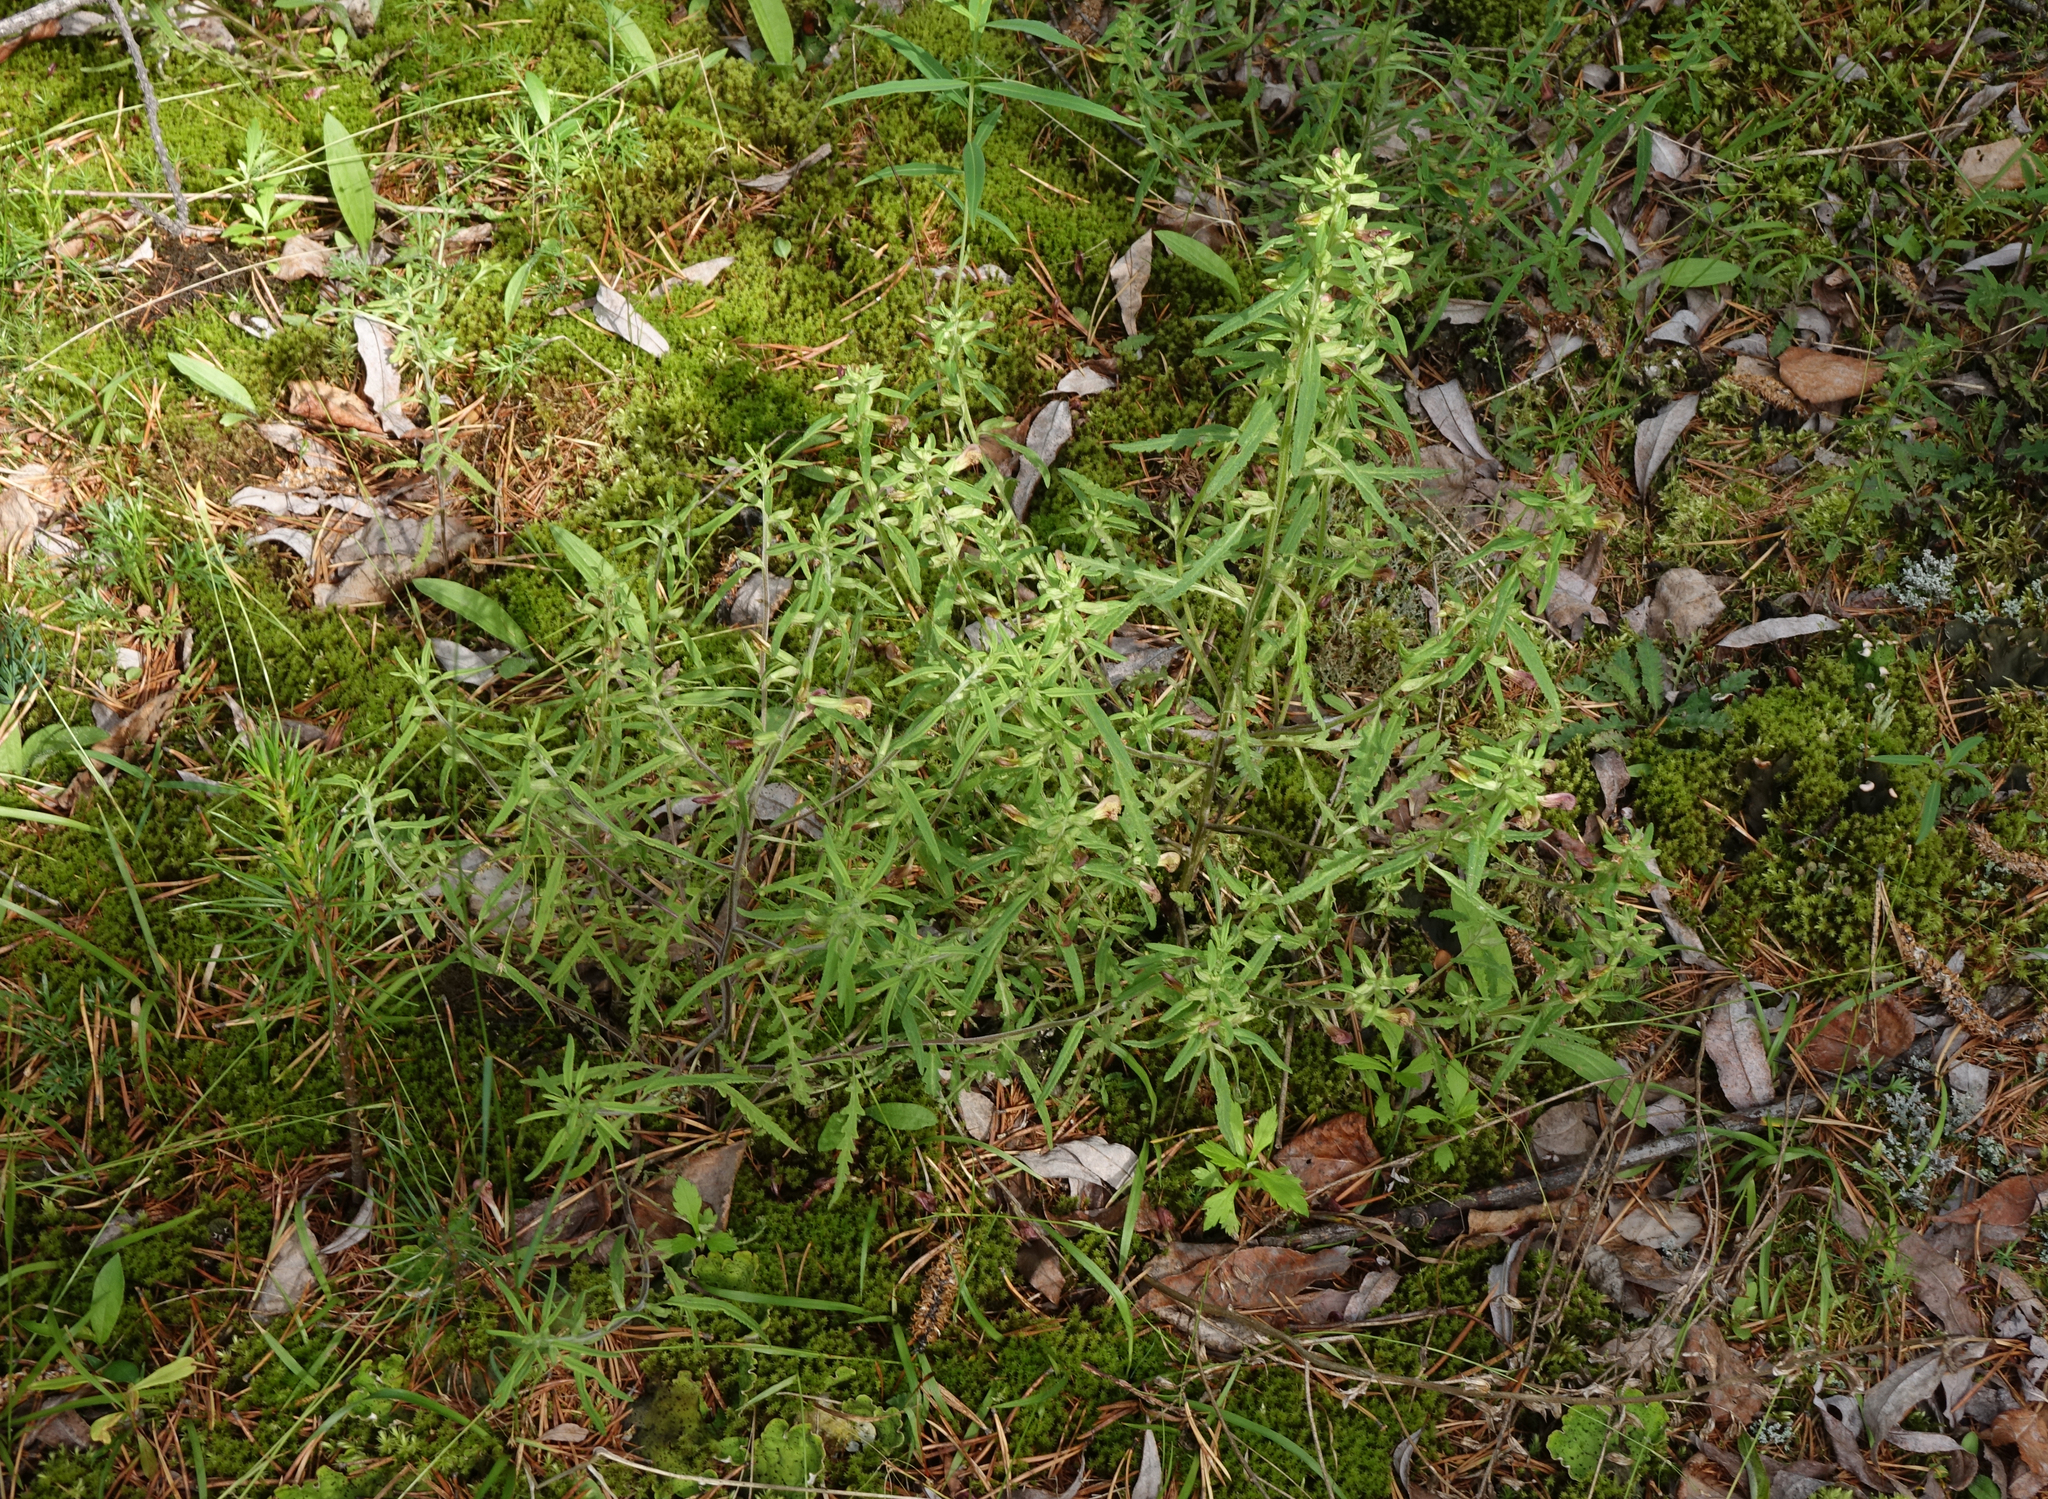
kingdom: Plantae
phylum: Tracheophyta
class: Magnoliopsida
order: Lamiales
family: Orobanchaceae
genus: Pedicularis
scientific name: Pedicularis labradorica
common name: Labrador lousewort
